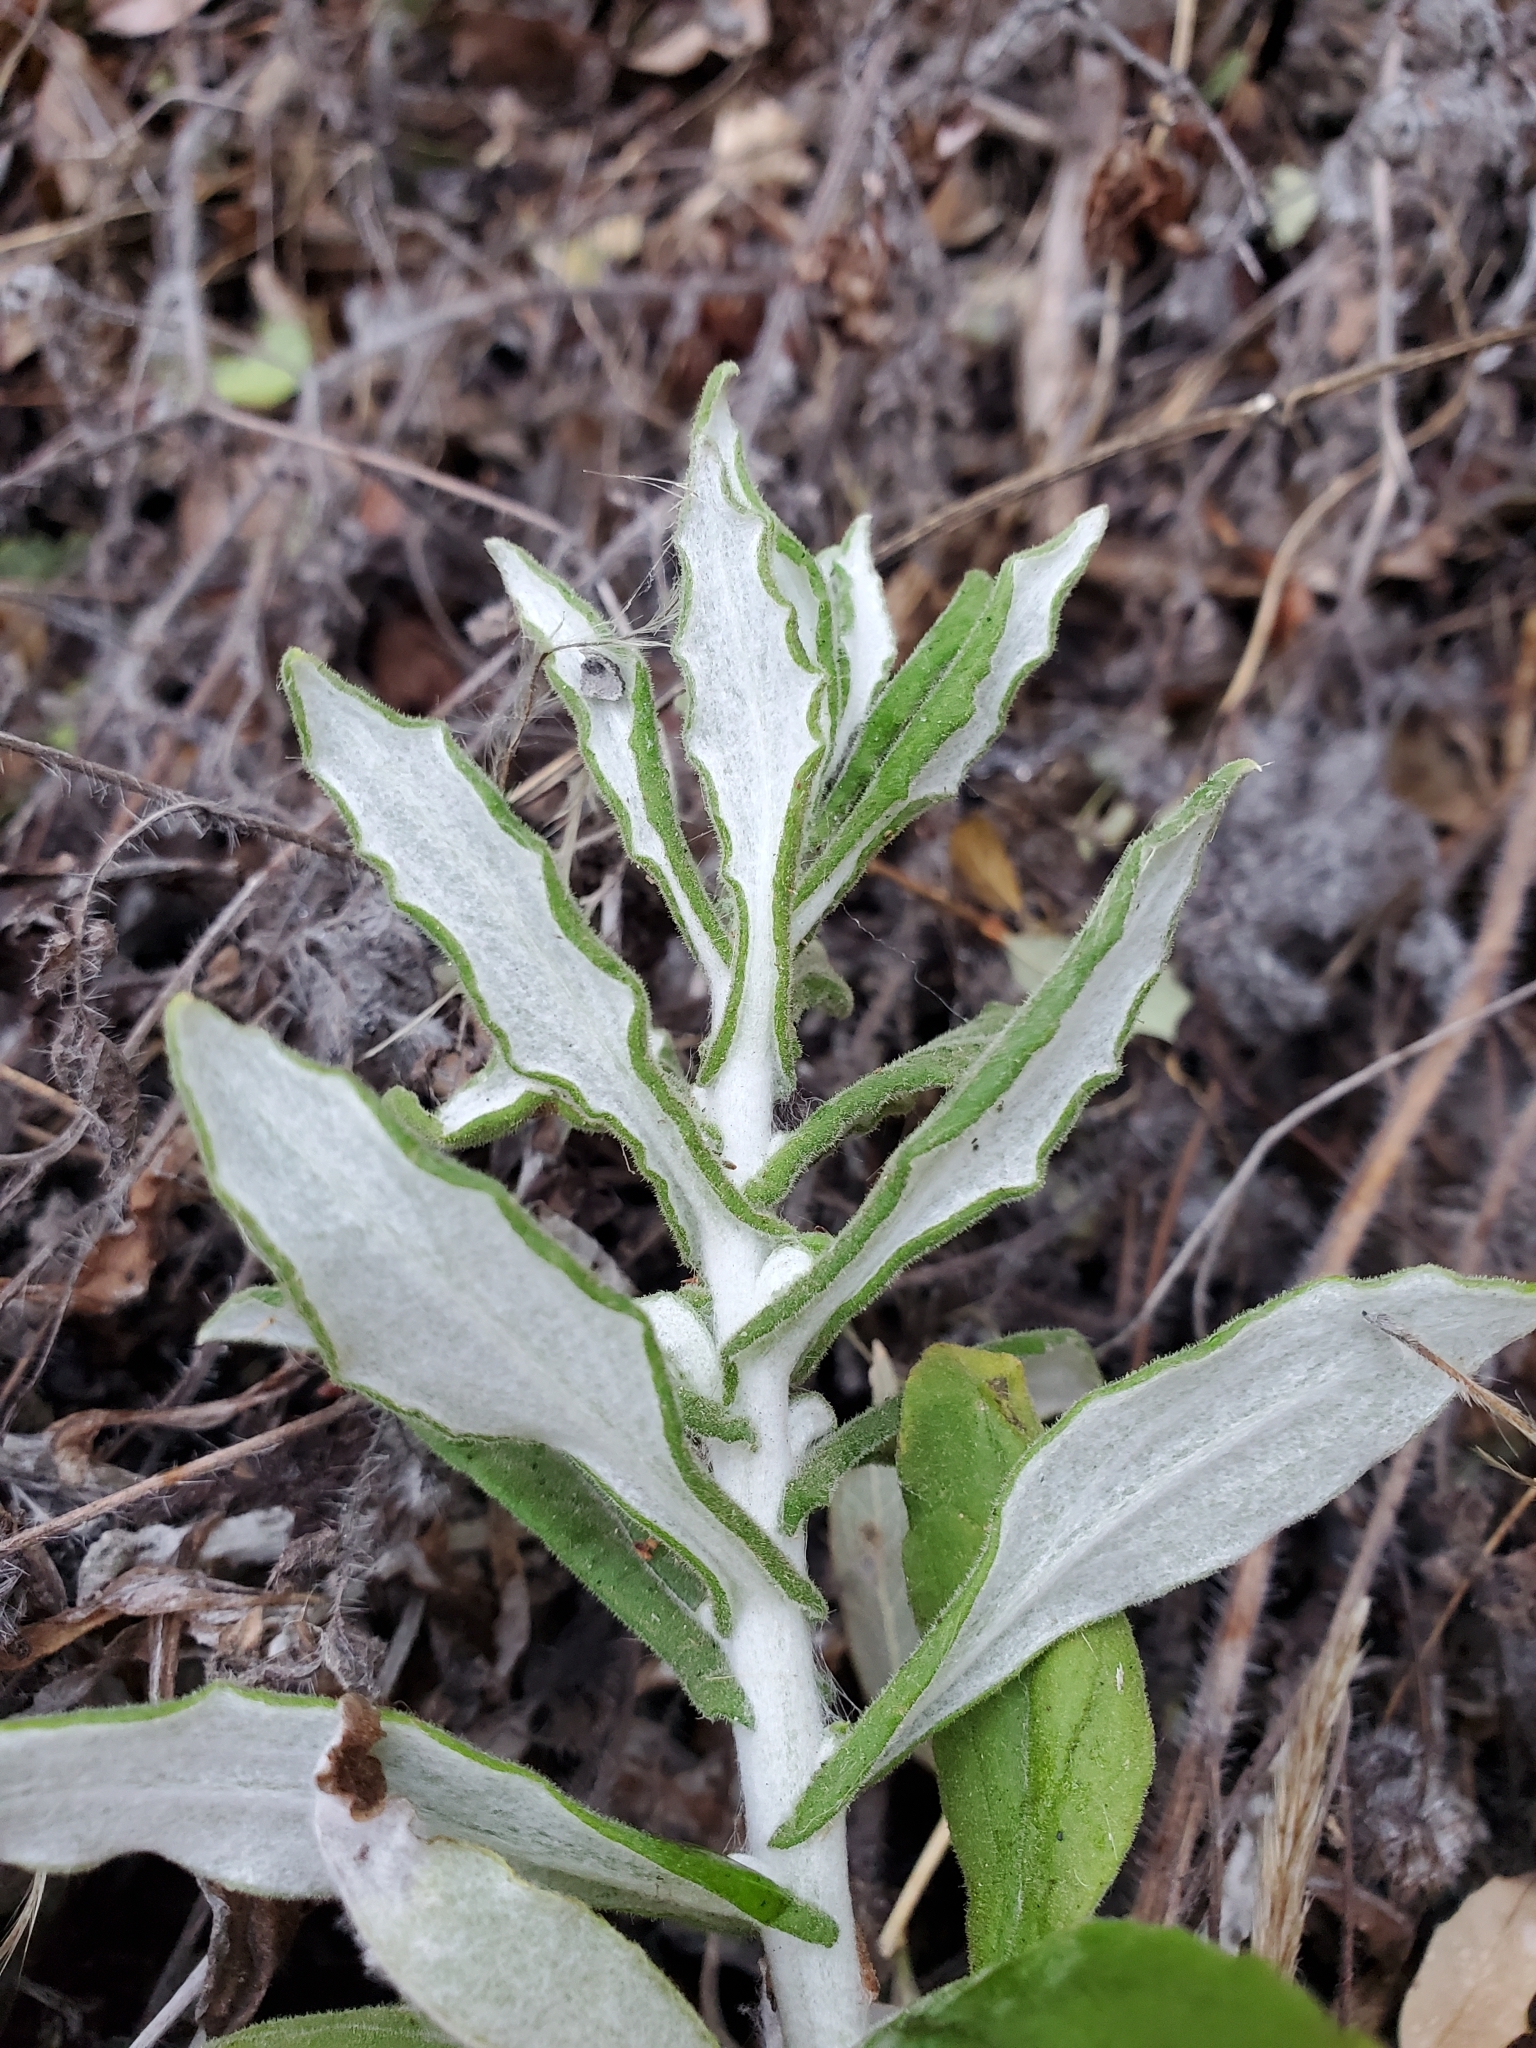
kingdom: Plantae
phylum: Tracheophyta
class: Magnoliopsida
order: Asterales
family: Asteraceae
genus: Pseudognaphalium
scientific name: Pseudognaphalium biolettii
